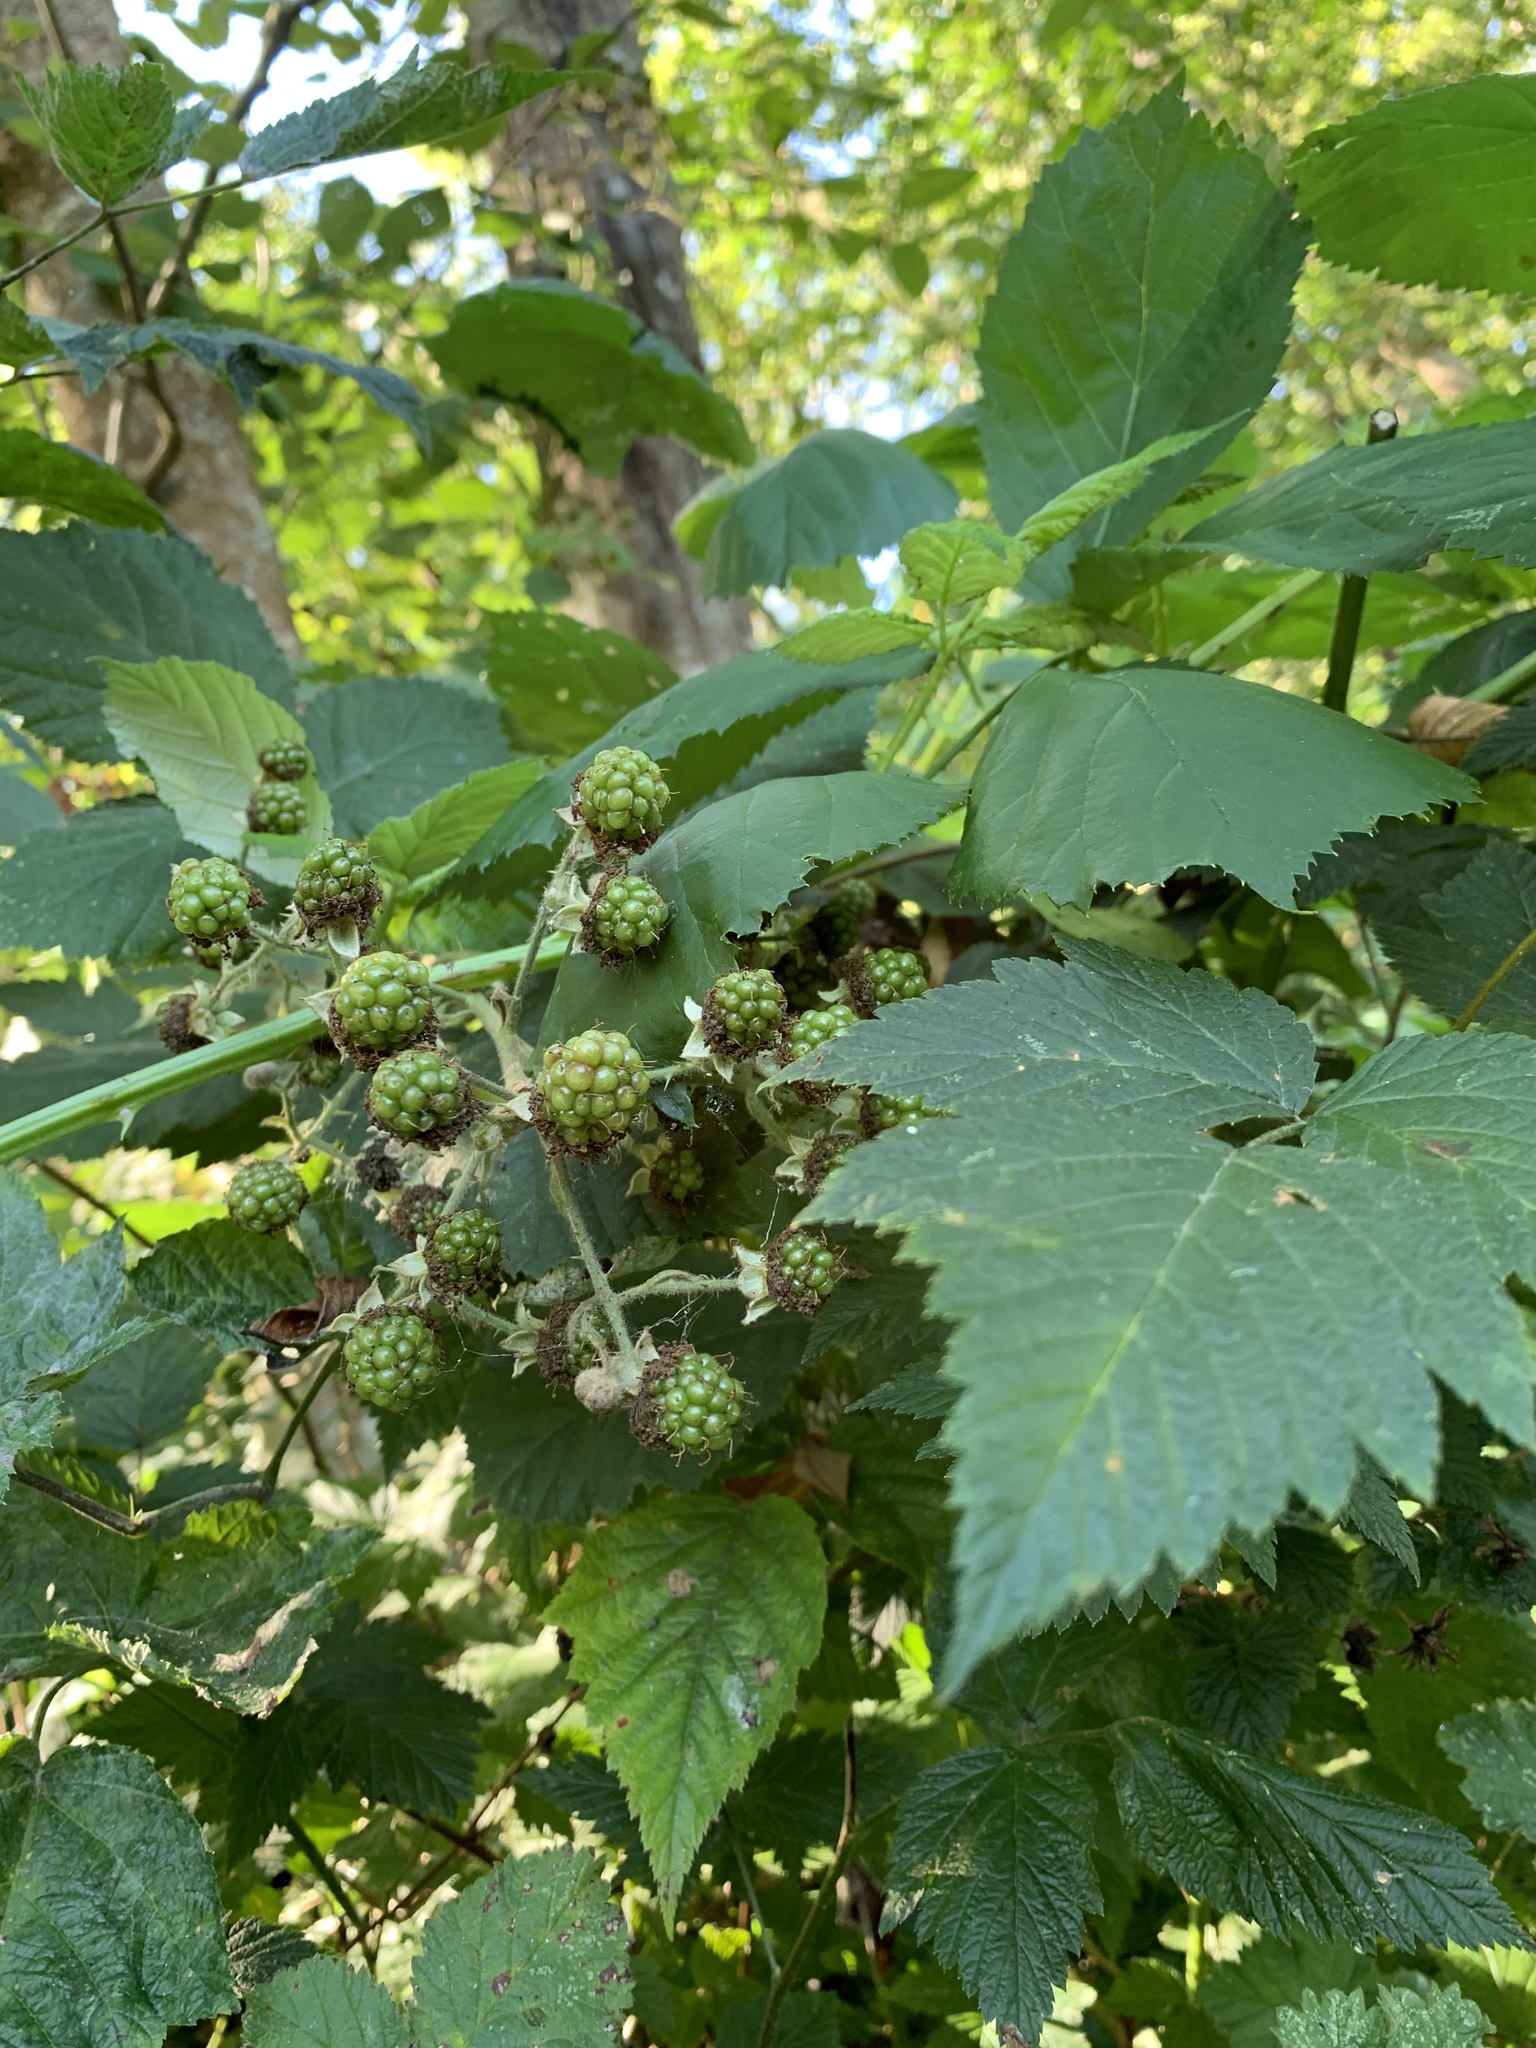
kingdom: Plantae
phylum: Tracheophyta
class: Magnoliopsida
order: Rosales
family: Rosaceae
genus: Rubus
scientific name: Rubus bifrons
